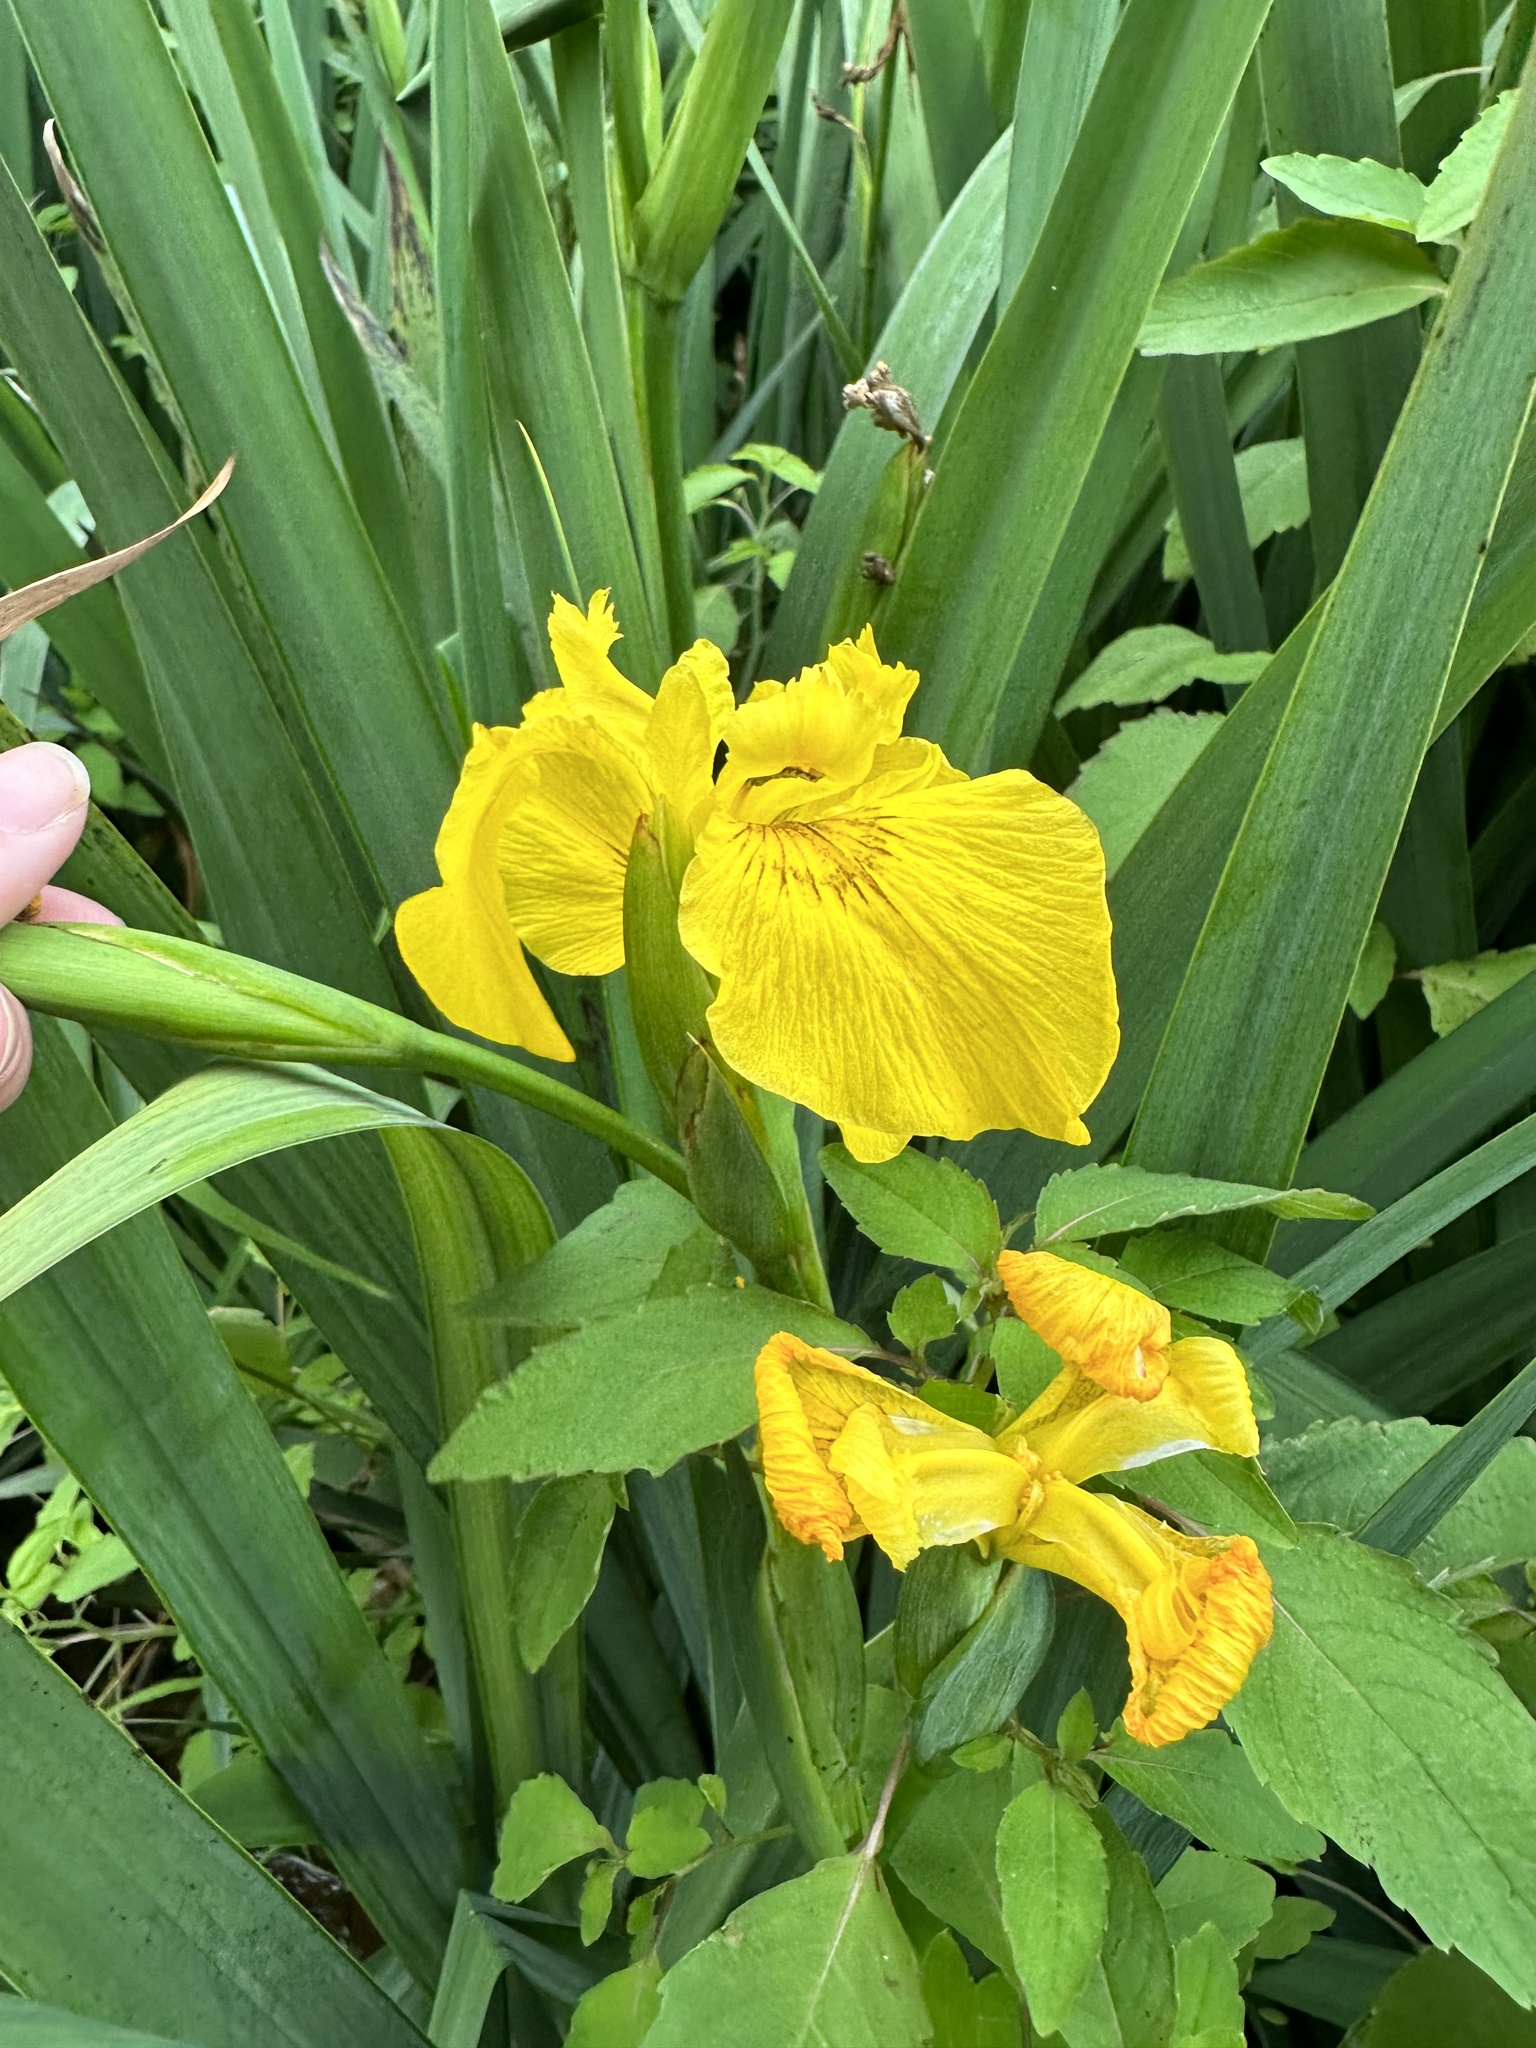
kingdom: Plantae
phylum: Tracheophyta
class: Liliopsida
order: Asparagales
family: Iridaceae
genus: Iris
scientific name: Iris pseudacorus
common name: Yellow flag
